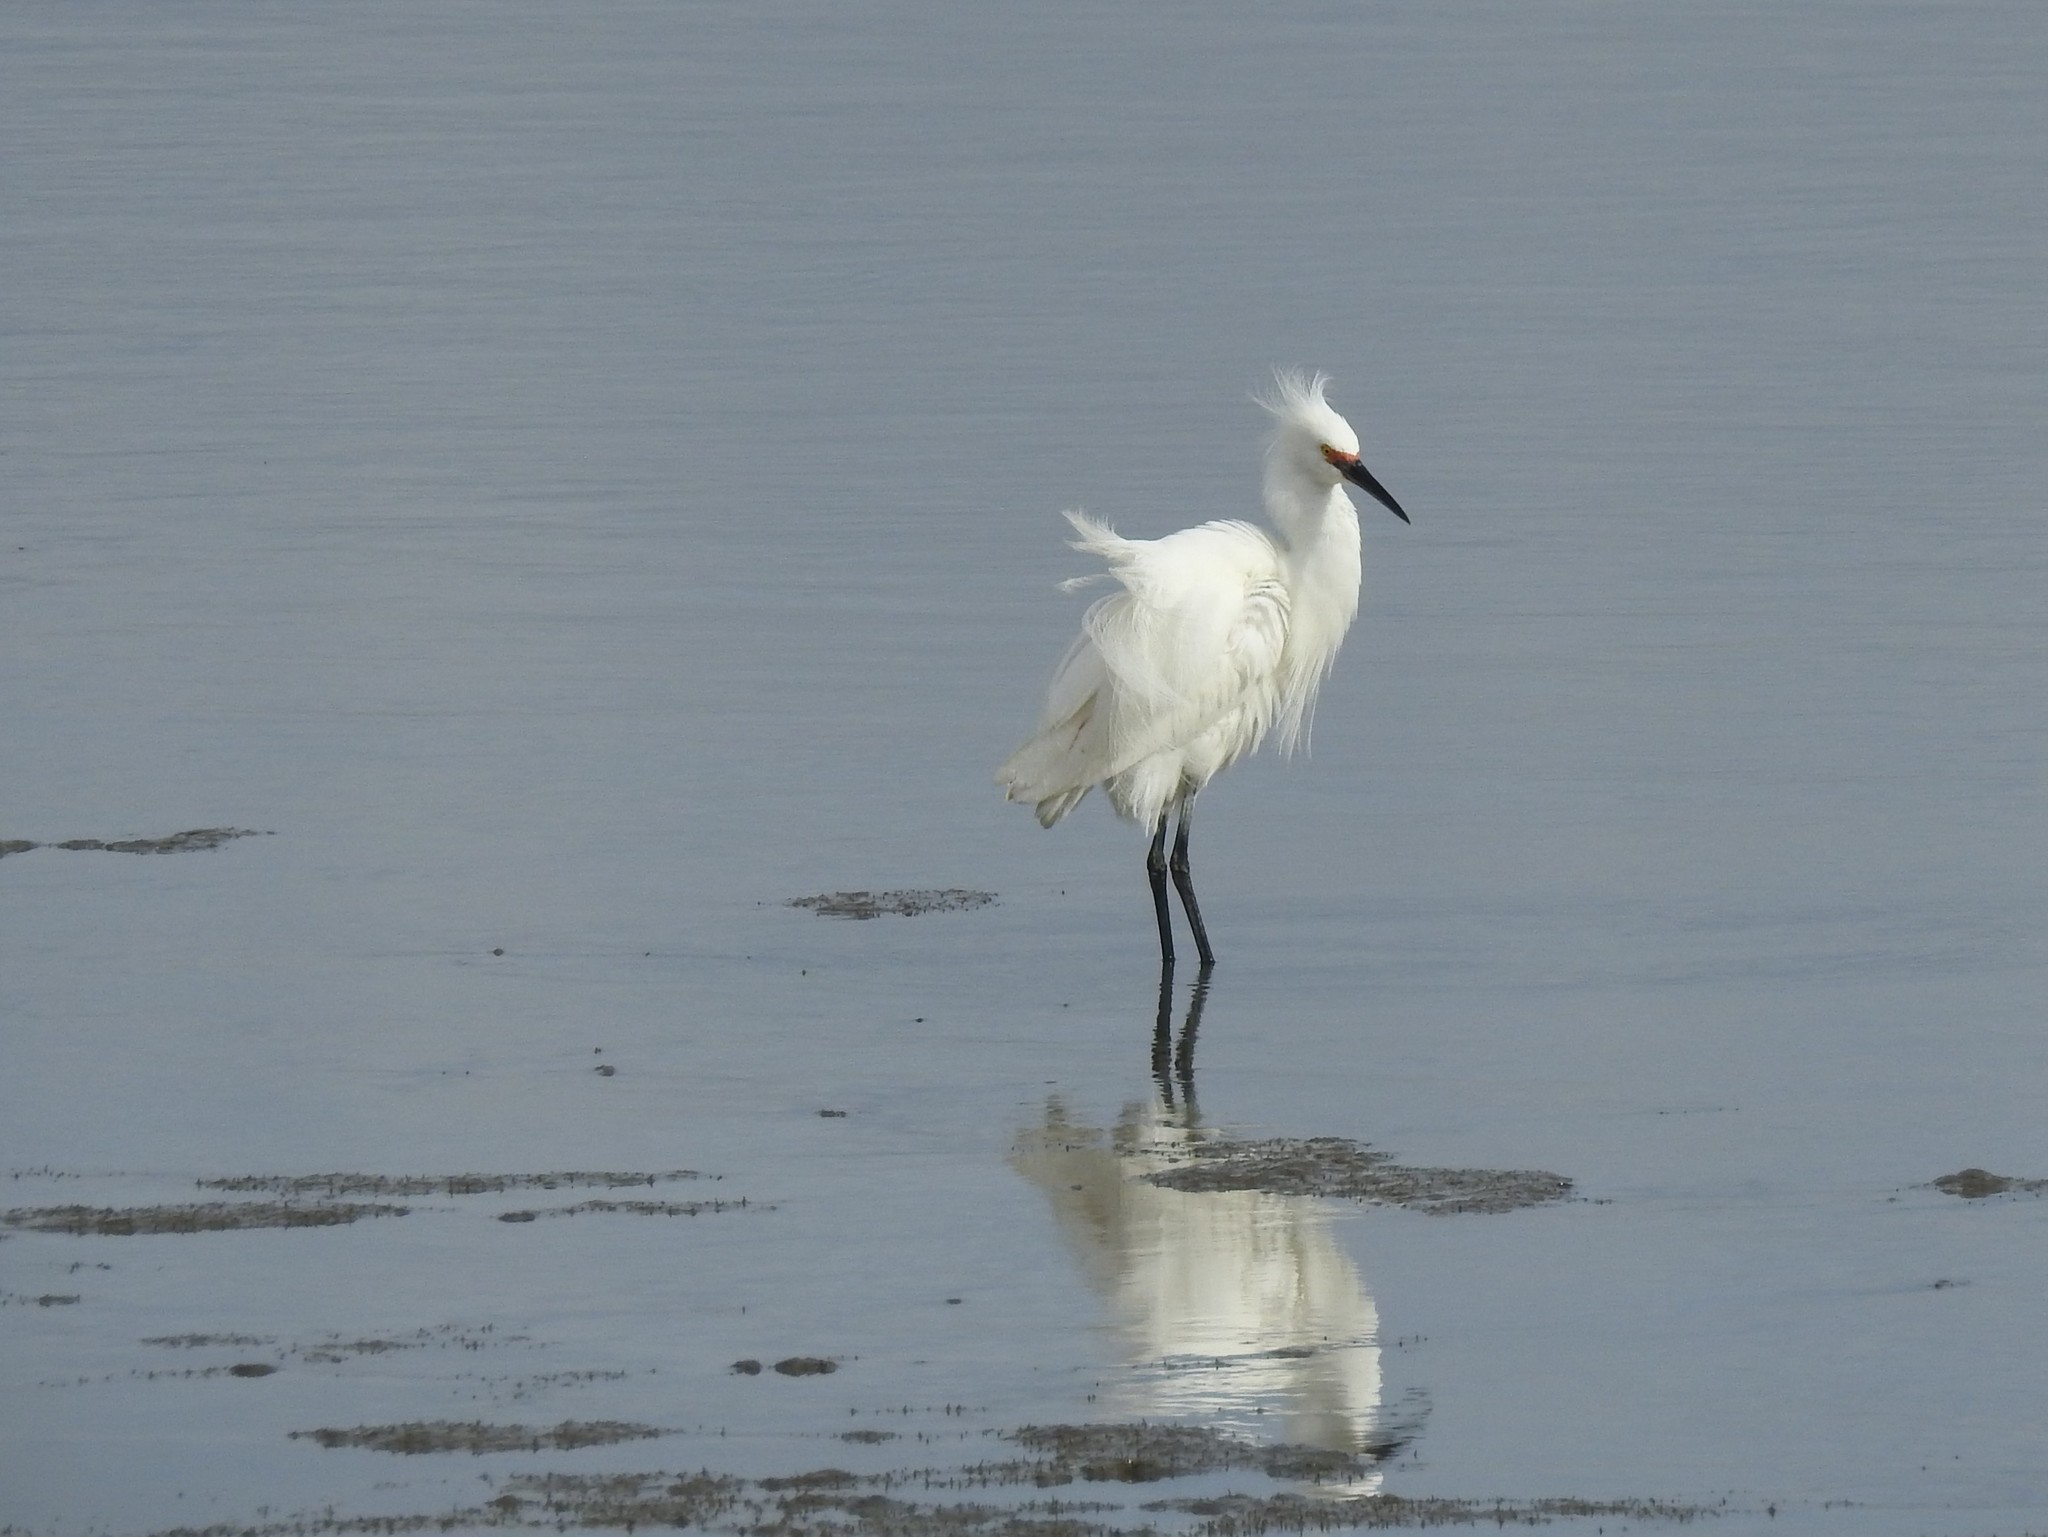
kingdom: Animalia
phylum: Chordata
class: Aves
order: Pelecaniformes
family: Ardeidae
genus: Egretta
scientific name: Egretta thula
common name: Snowy egret
